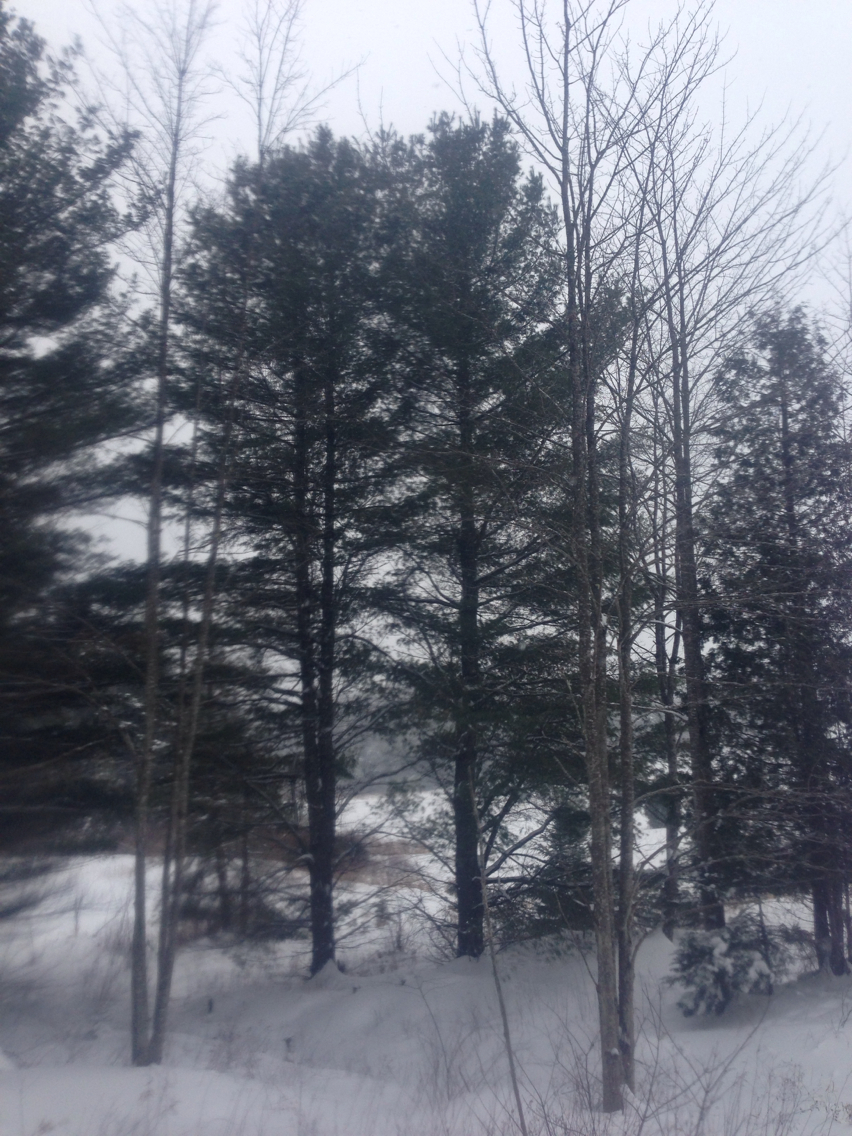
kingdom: Plantae
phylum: Tracheophyta
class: Pinopsida
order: Pinales
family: Pinaceae
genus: Pinus
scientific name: Pinus strobus
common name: Weymouth pine
